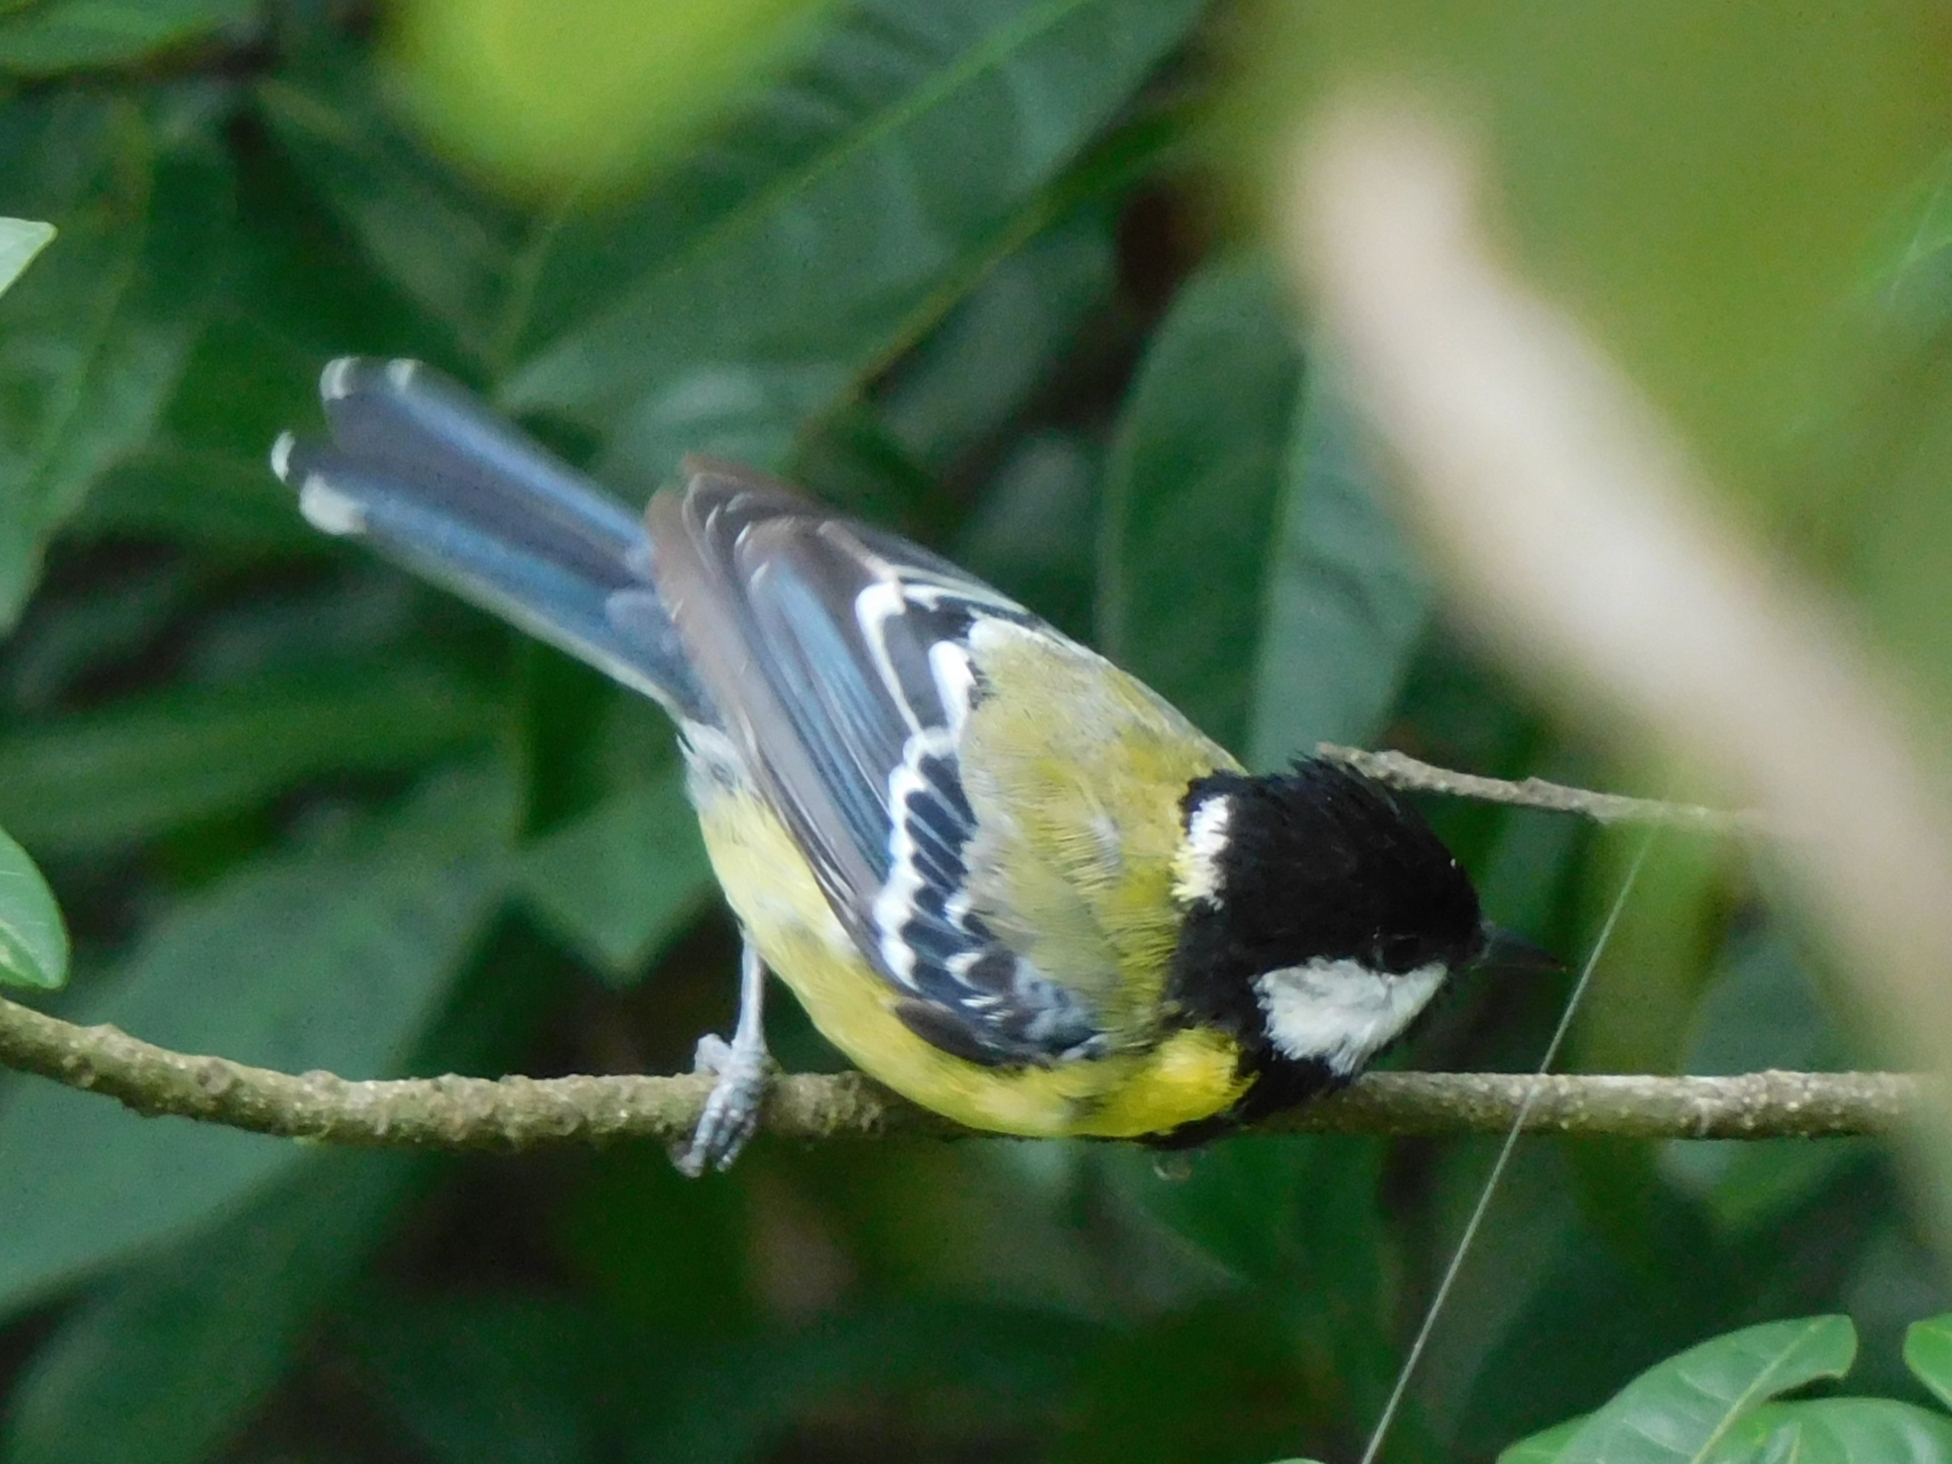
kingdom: Animalia
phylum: Chordata
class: Aves
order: Passeriformes
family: Paridae
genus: Parus
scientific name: Parus monticolus
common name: Green-backed tit
